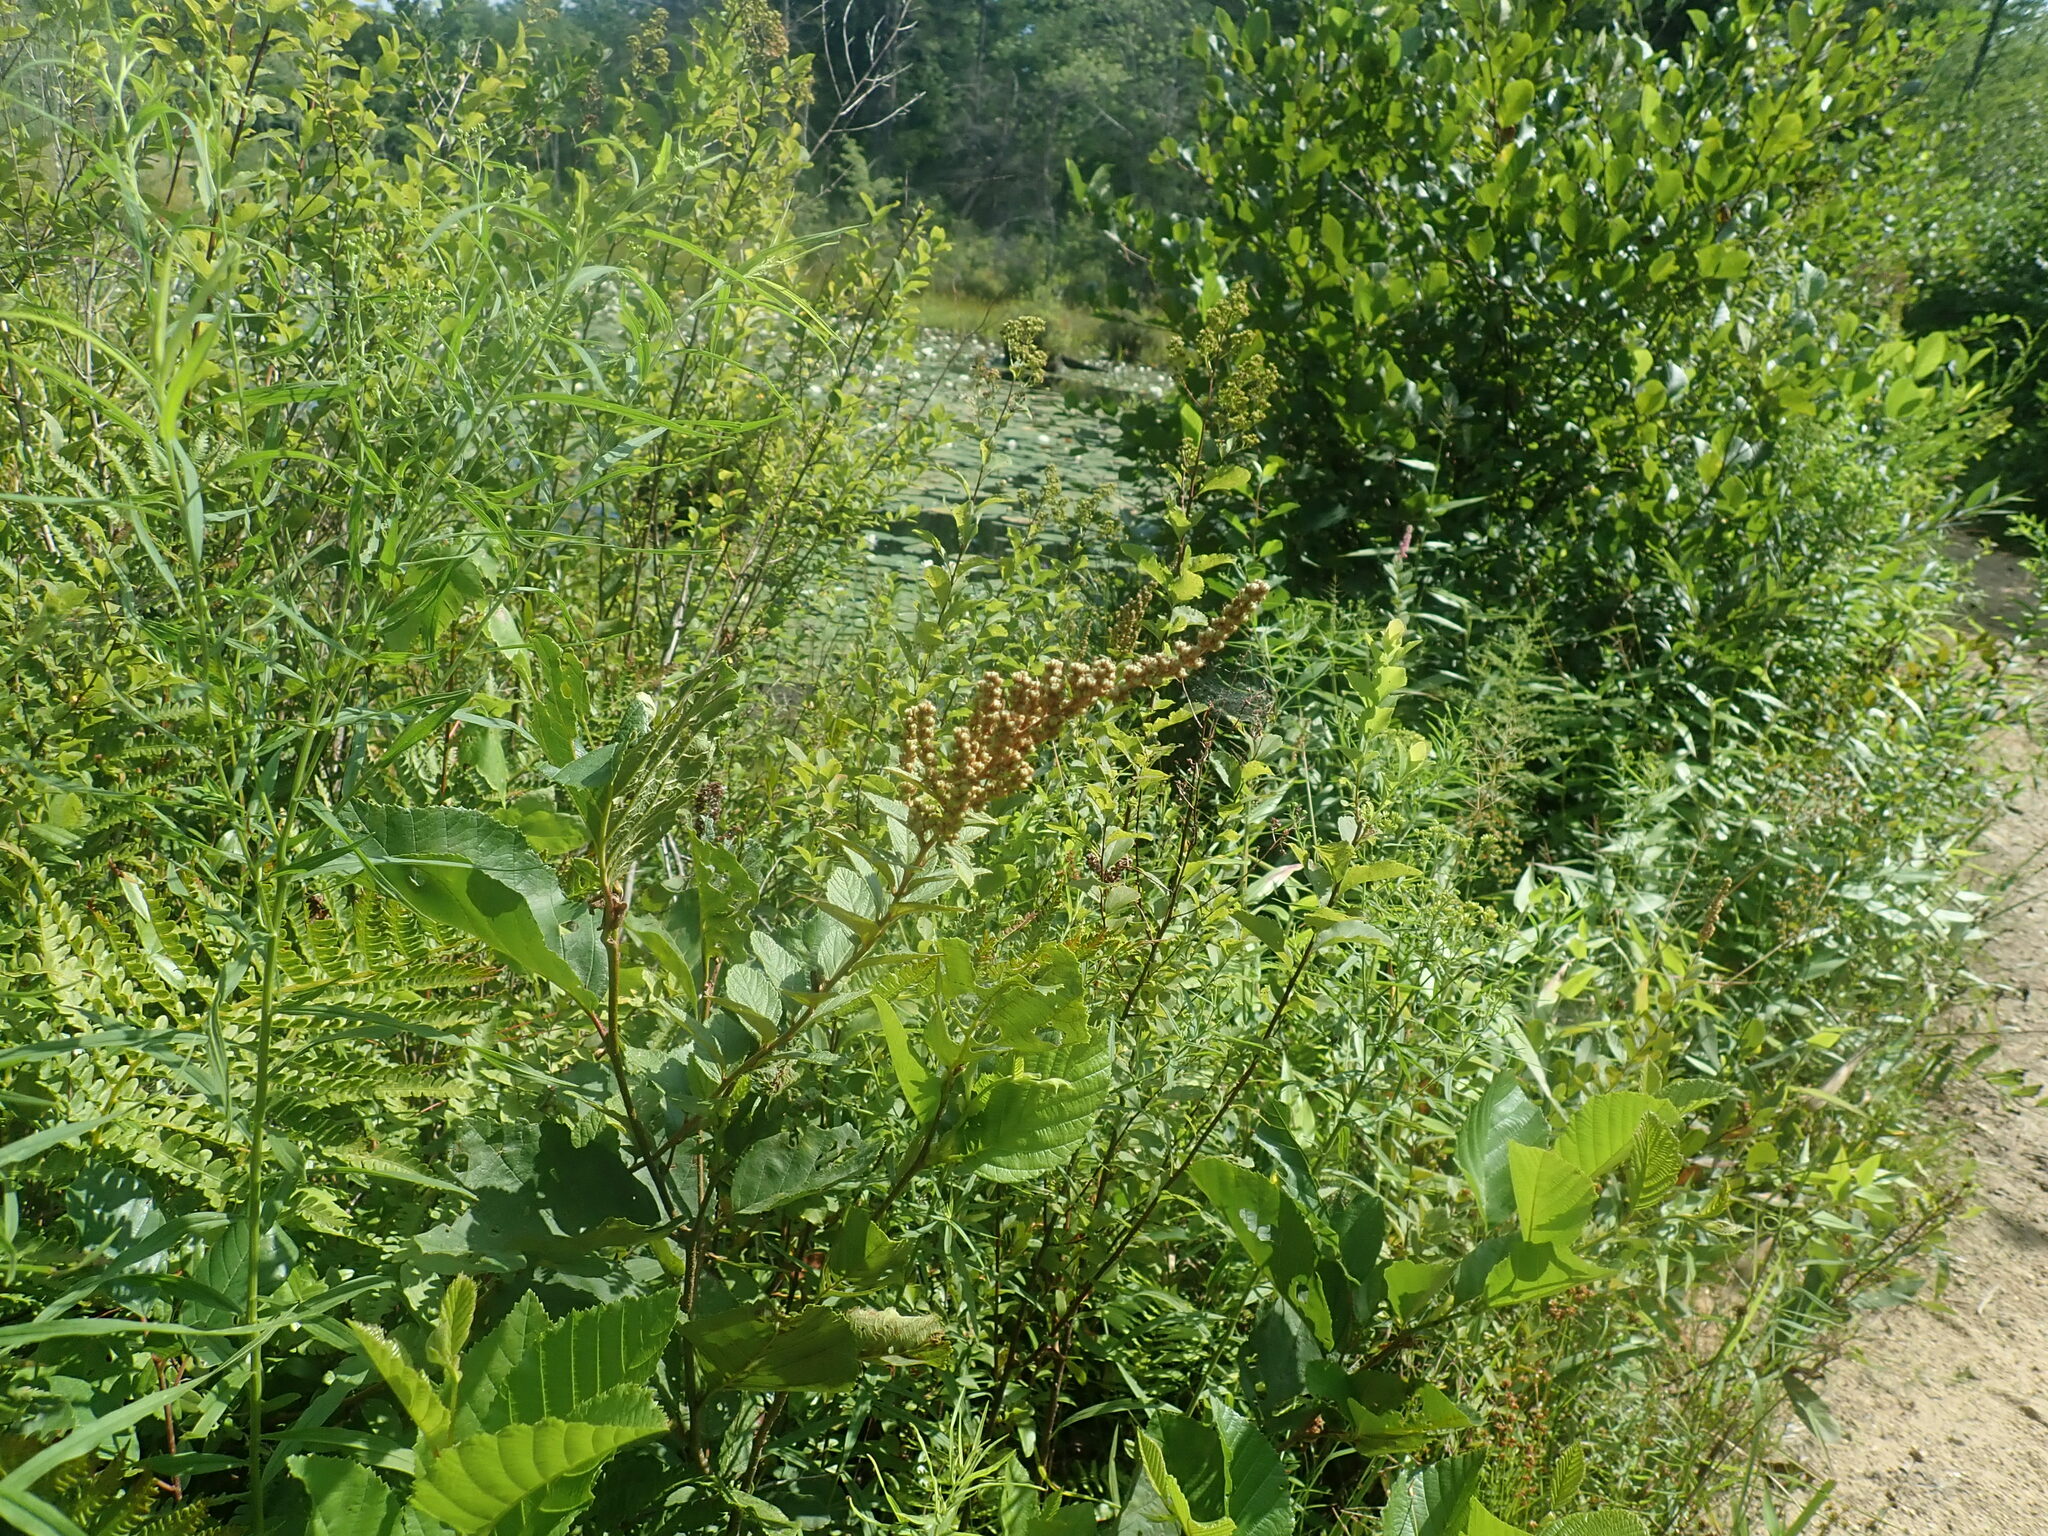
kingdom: Plantae
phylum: Tracheophyta
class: Magnoliopsida
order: Rosales
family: Rosaceae
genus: Spiraea
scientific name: Spiraea tomentosa
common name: Hardhack
